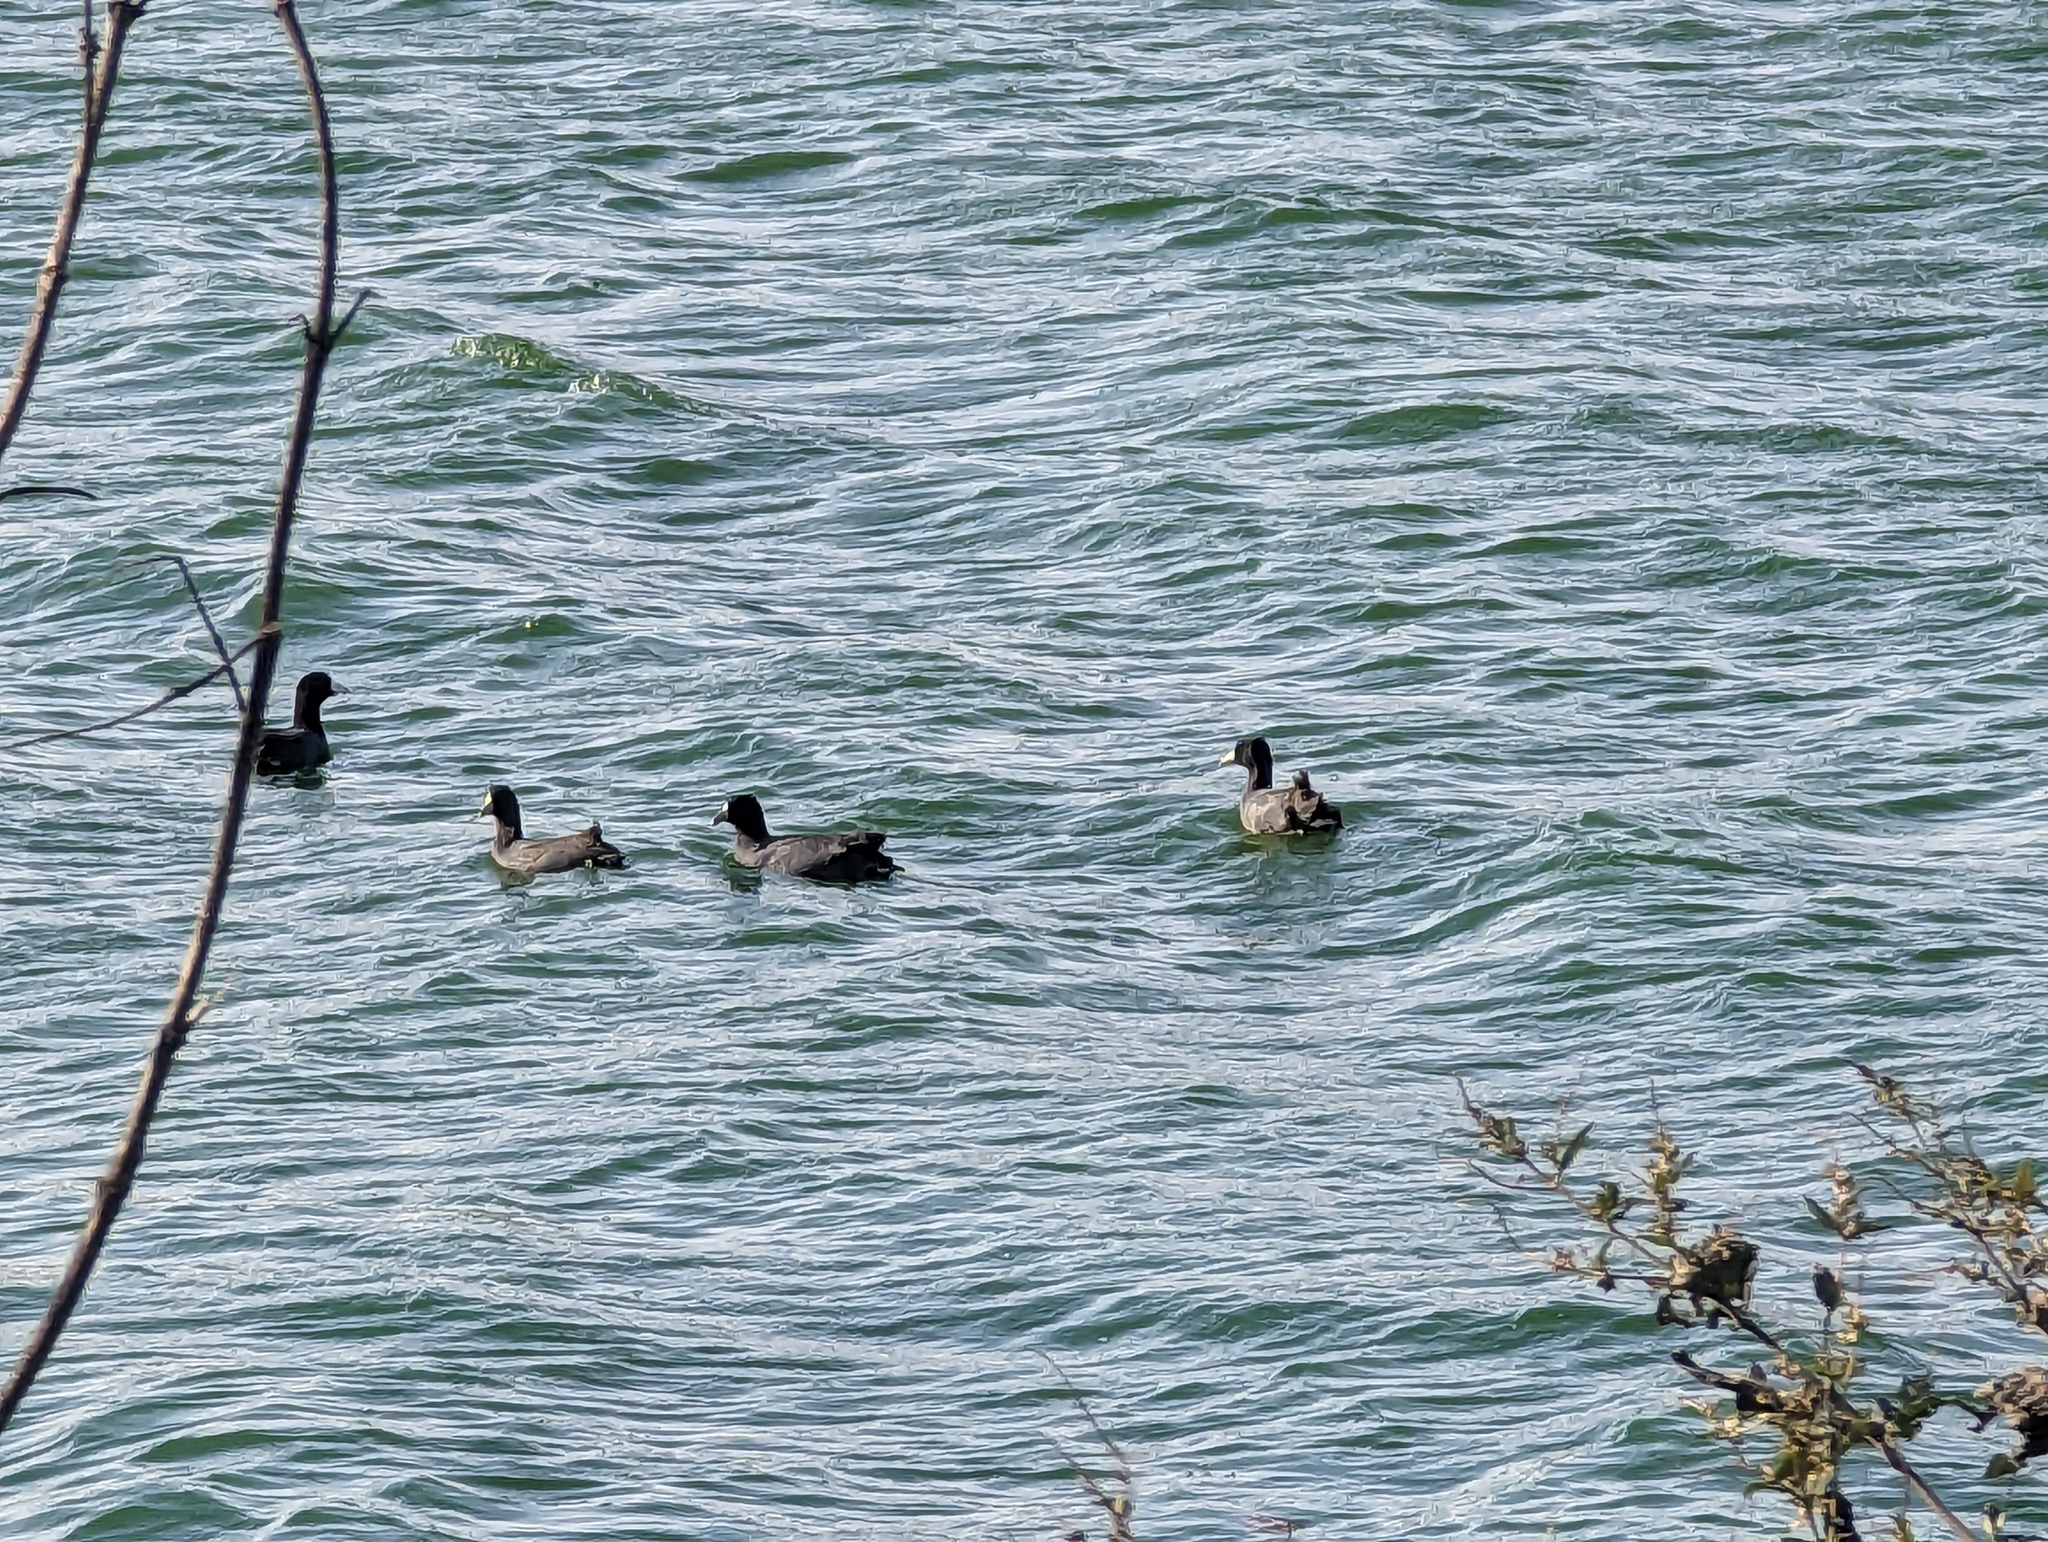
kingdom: Animalia
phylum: Chordata
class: Aves
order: Gruiformes
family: Rallidae
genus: Fulica
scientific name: Fulica americana
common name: American coot
